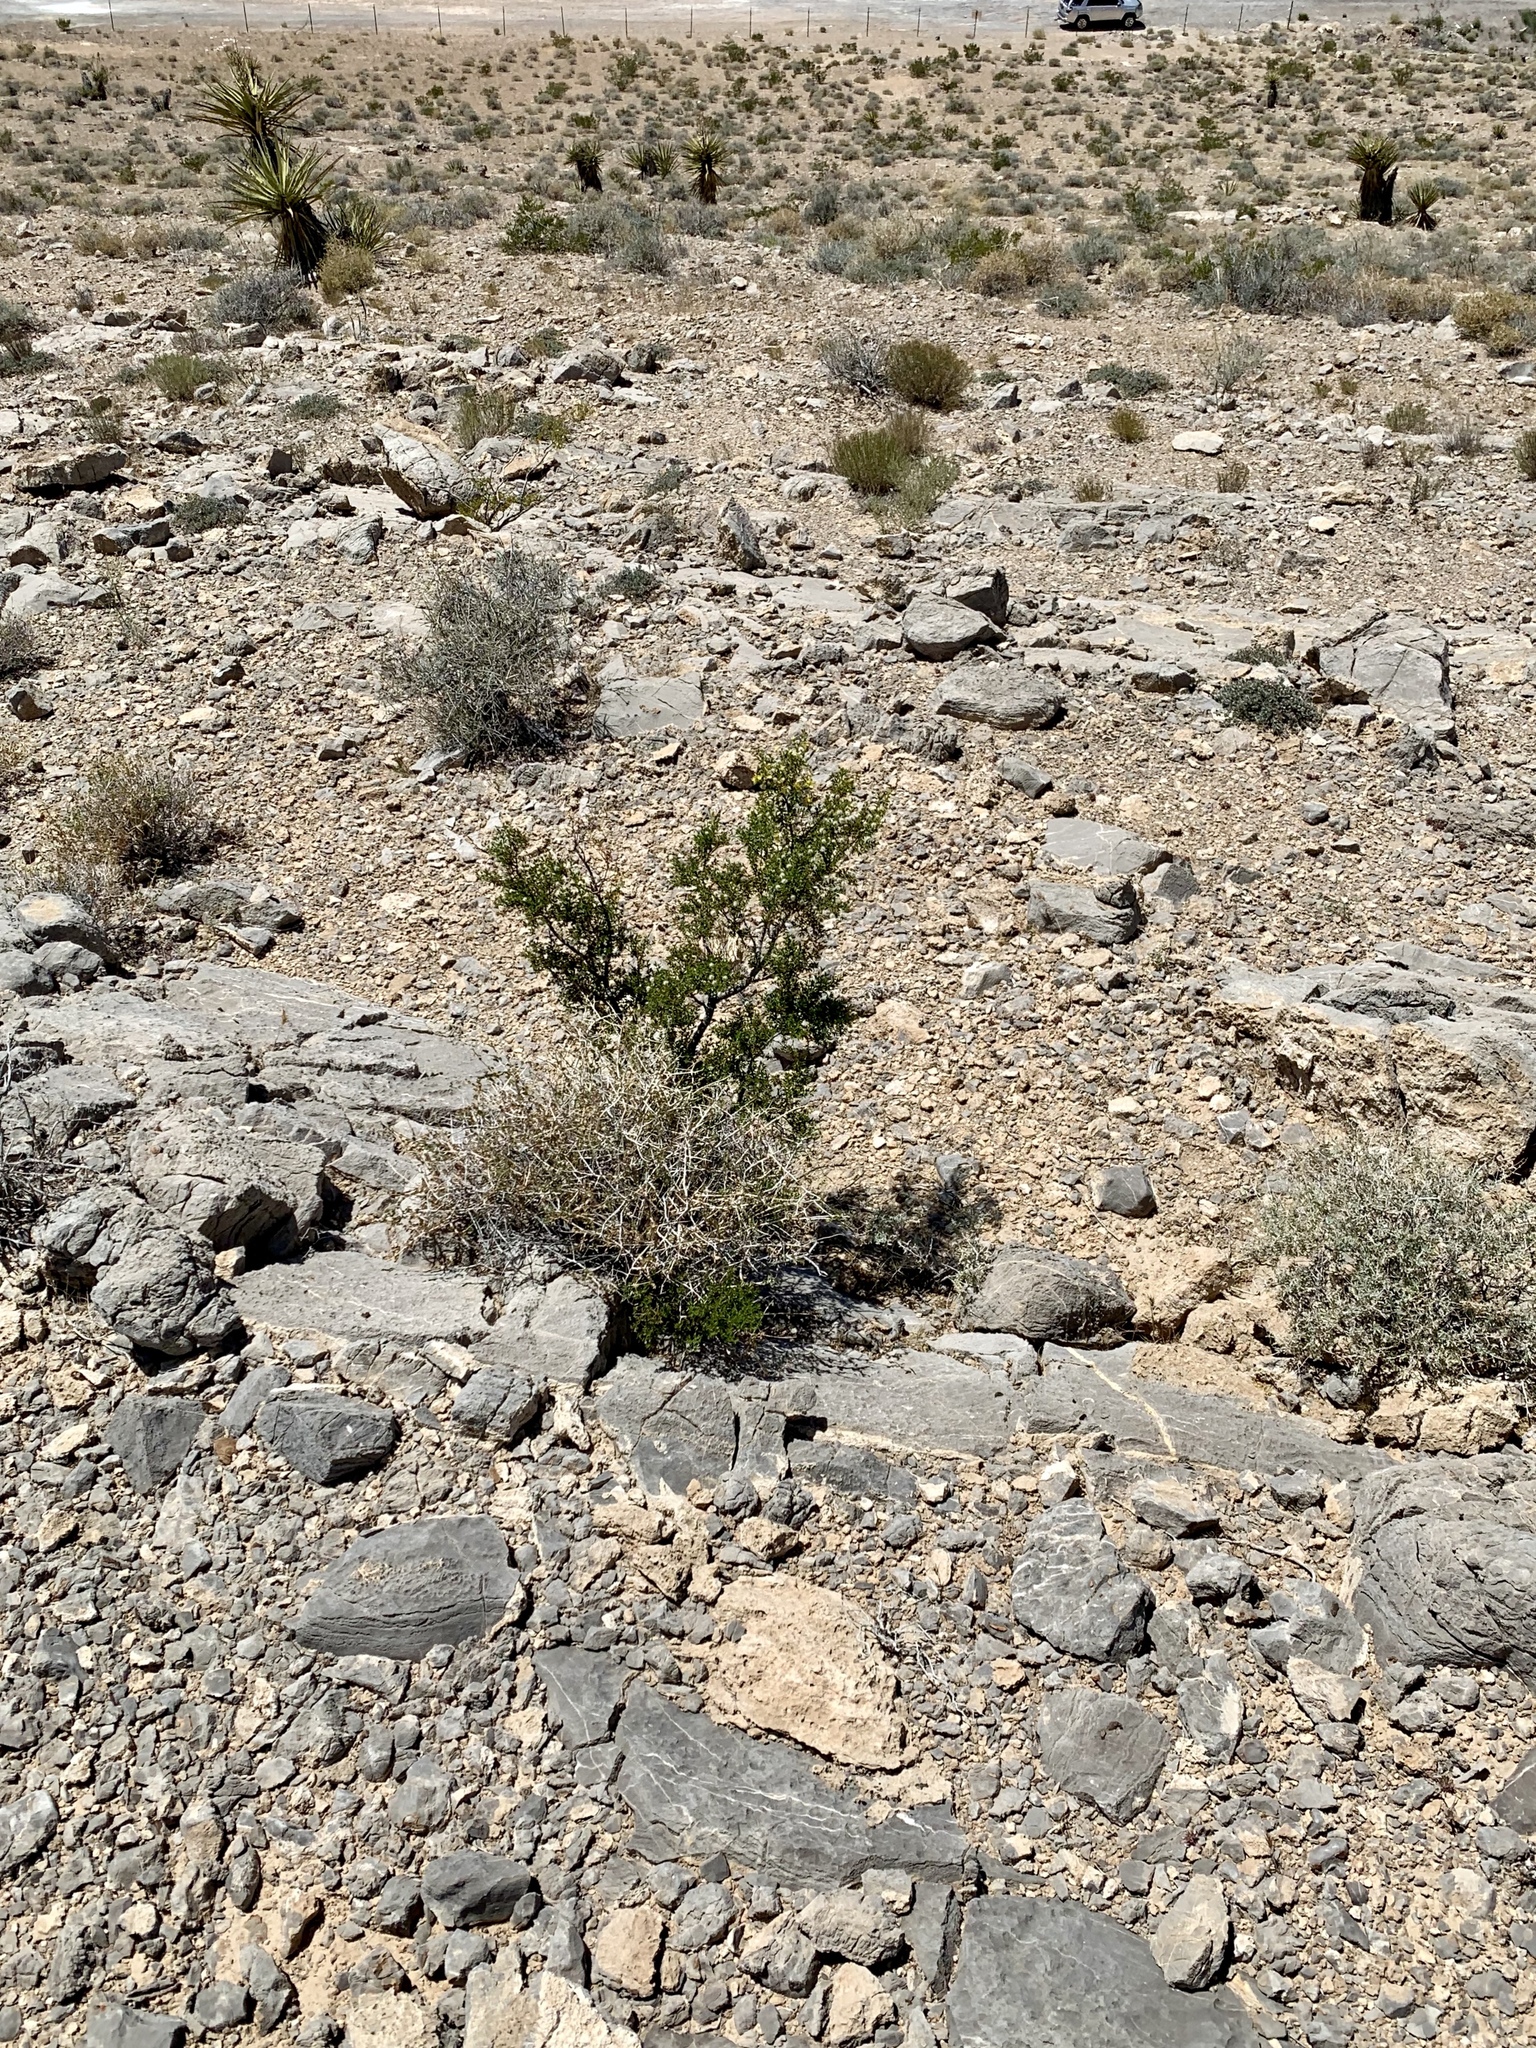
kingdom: Plantae
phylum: Tracheophyta
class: Magnoliopsida
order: Zygophyllales
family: Zygophyllaceae
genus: Larrea
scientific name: Larrea tridentata
